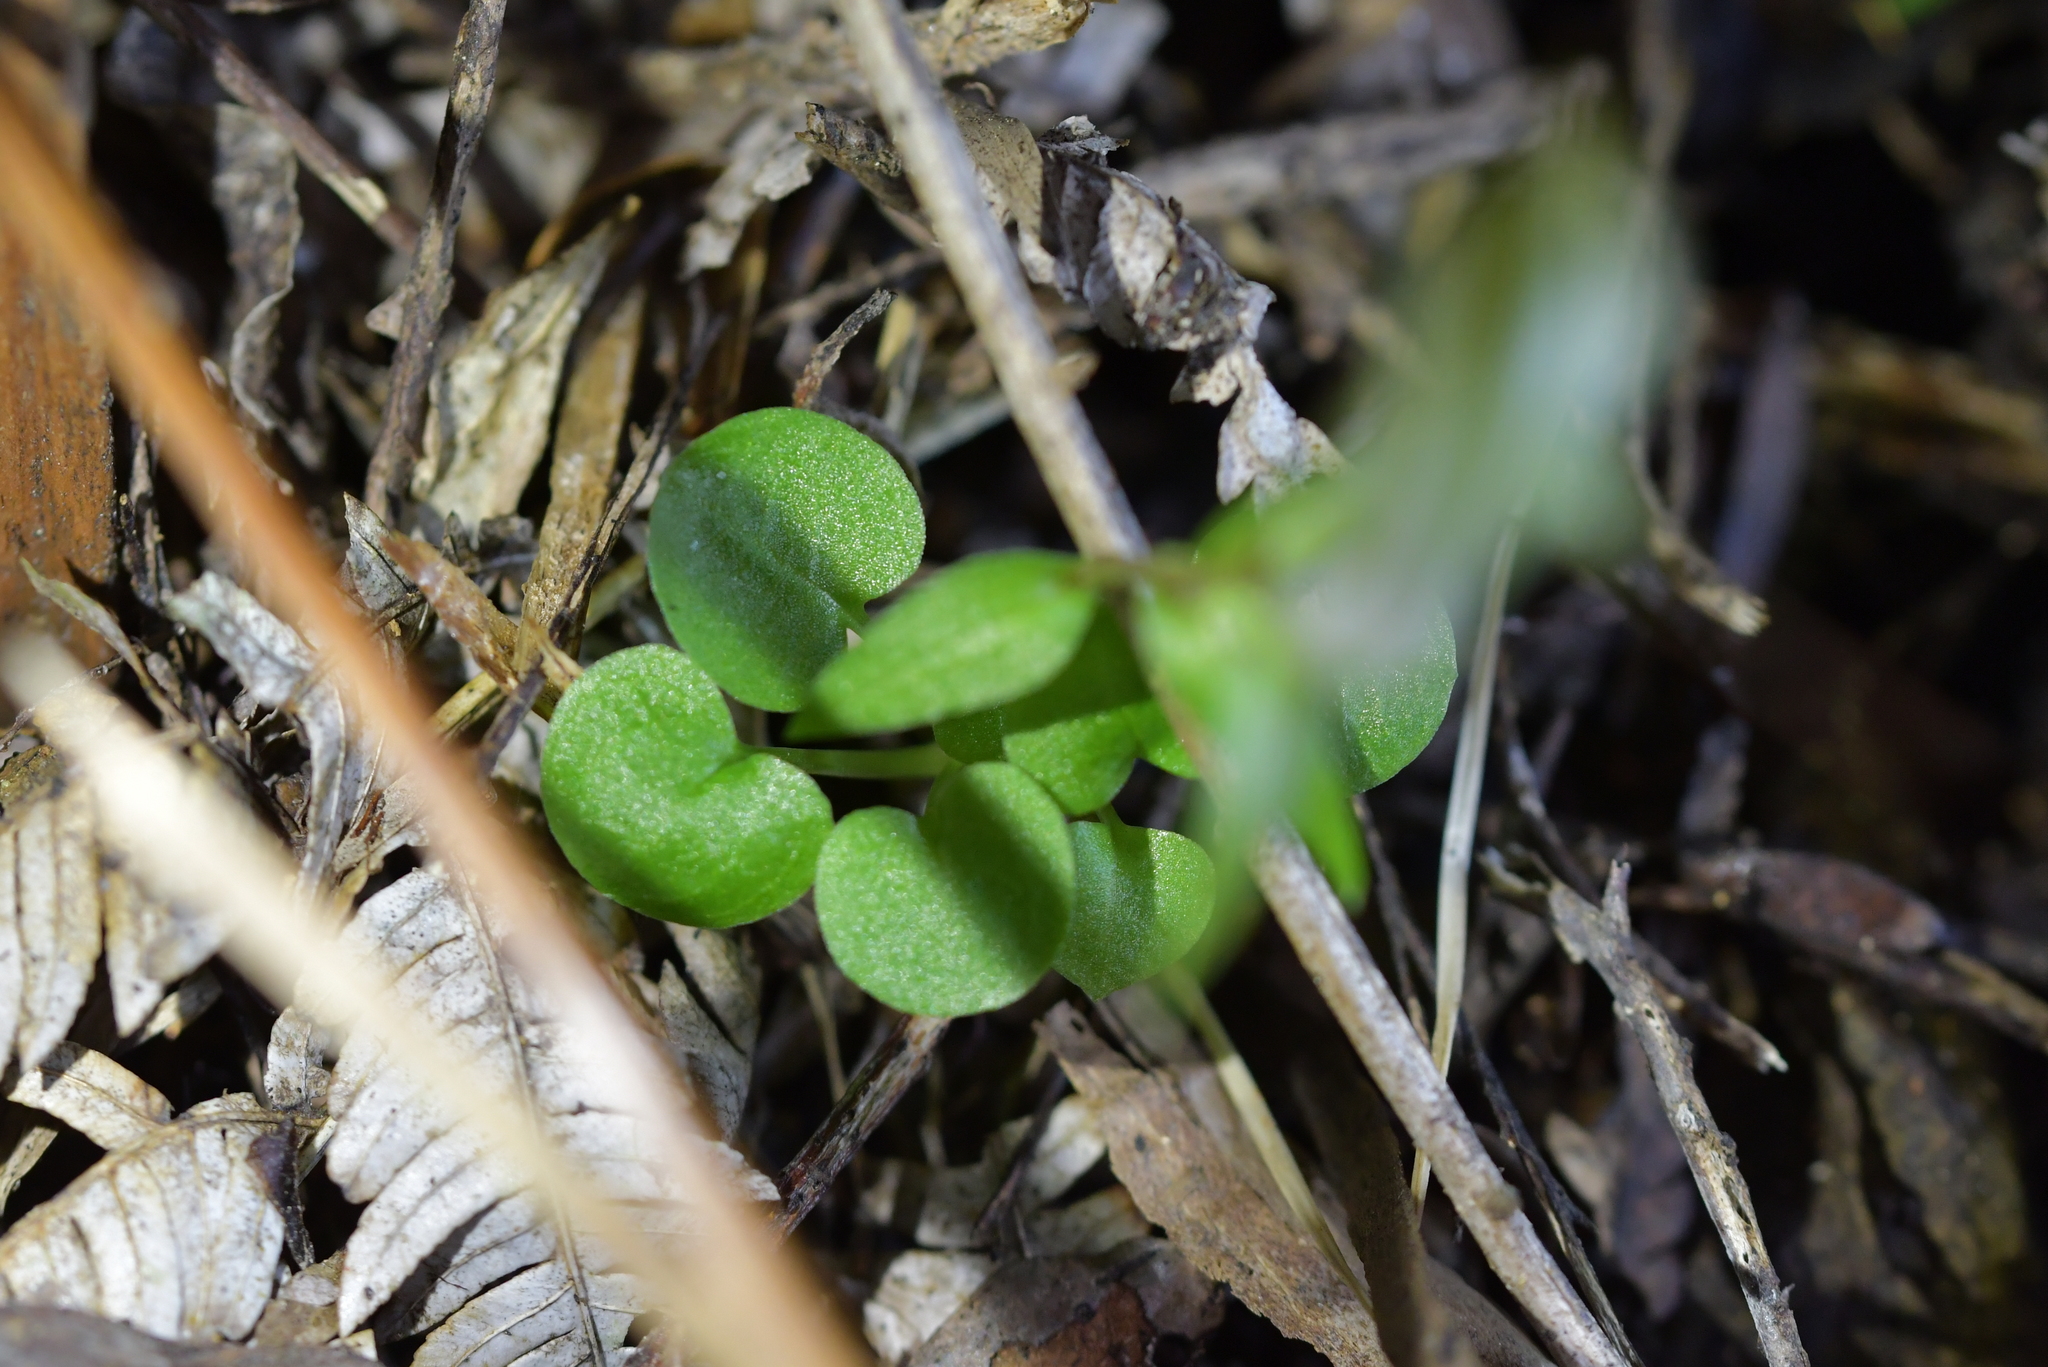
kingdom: Plantae
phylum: Tracheophyta
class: Liliopsida
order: Asparagales
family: Orchidaceae
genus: Pterostylis
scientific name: Pterostylis alobula
